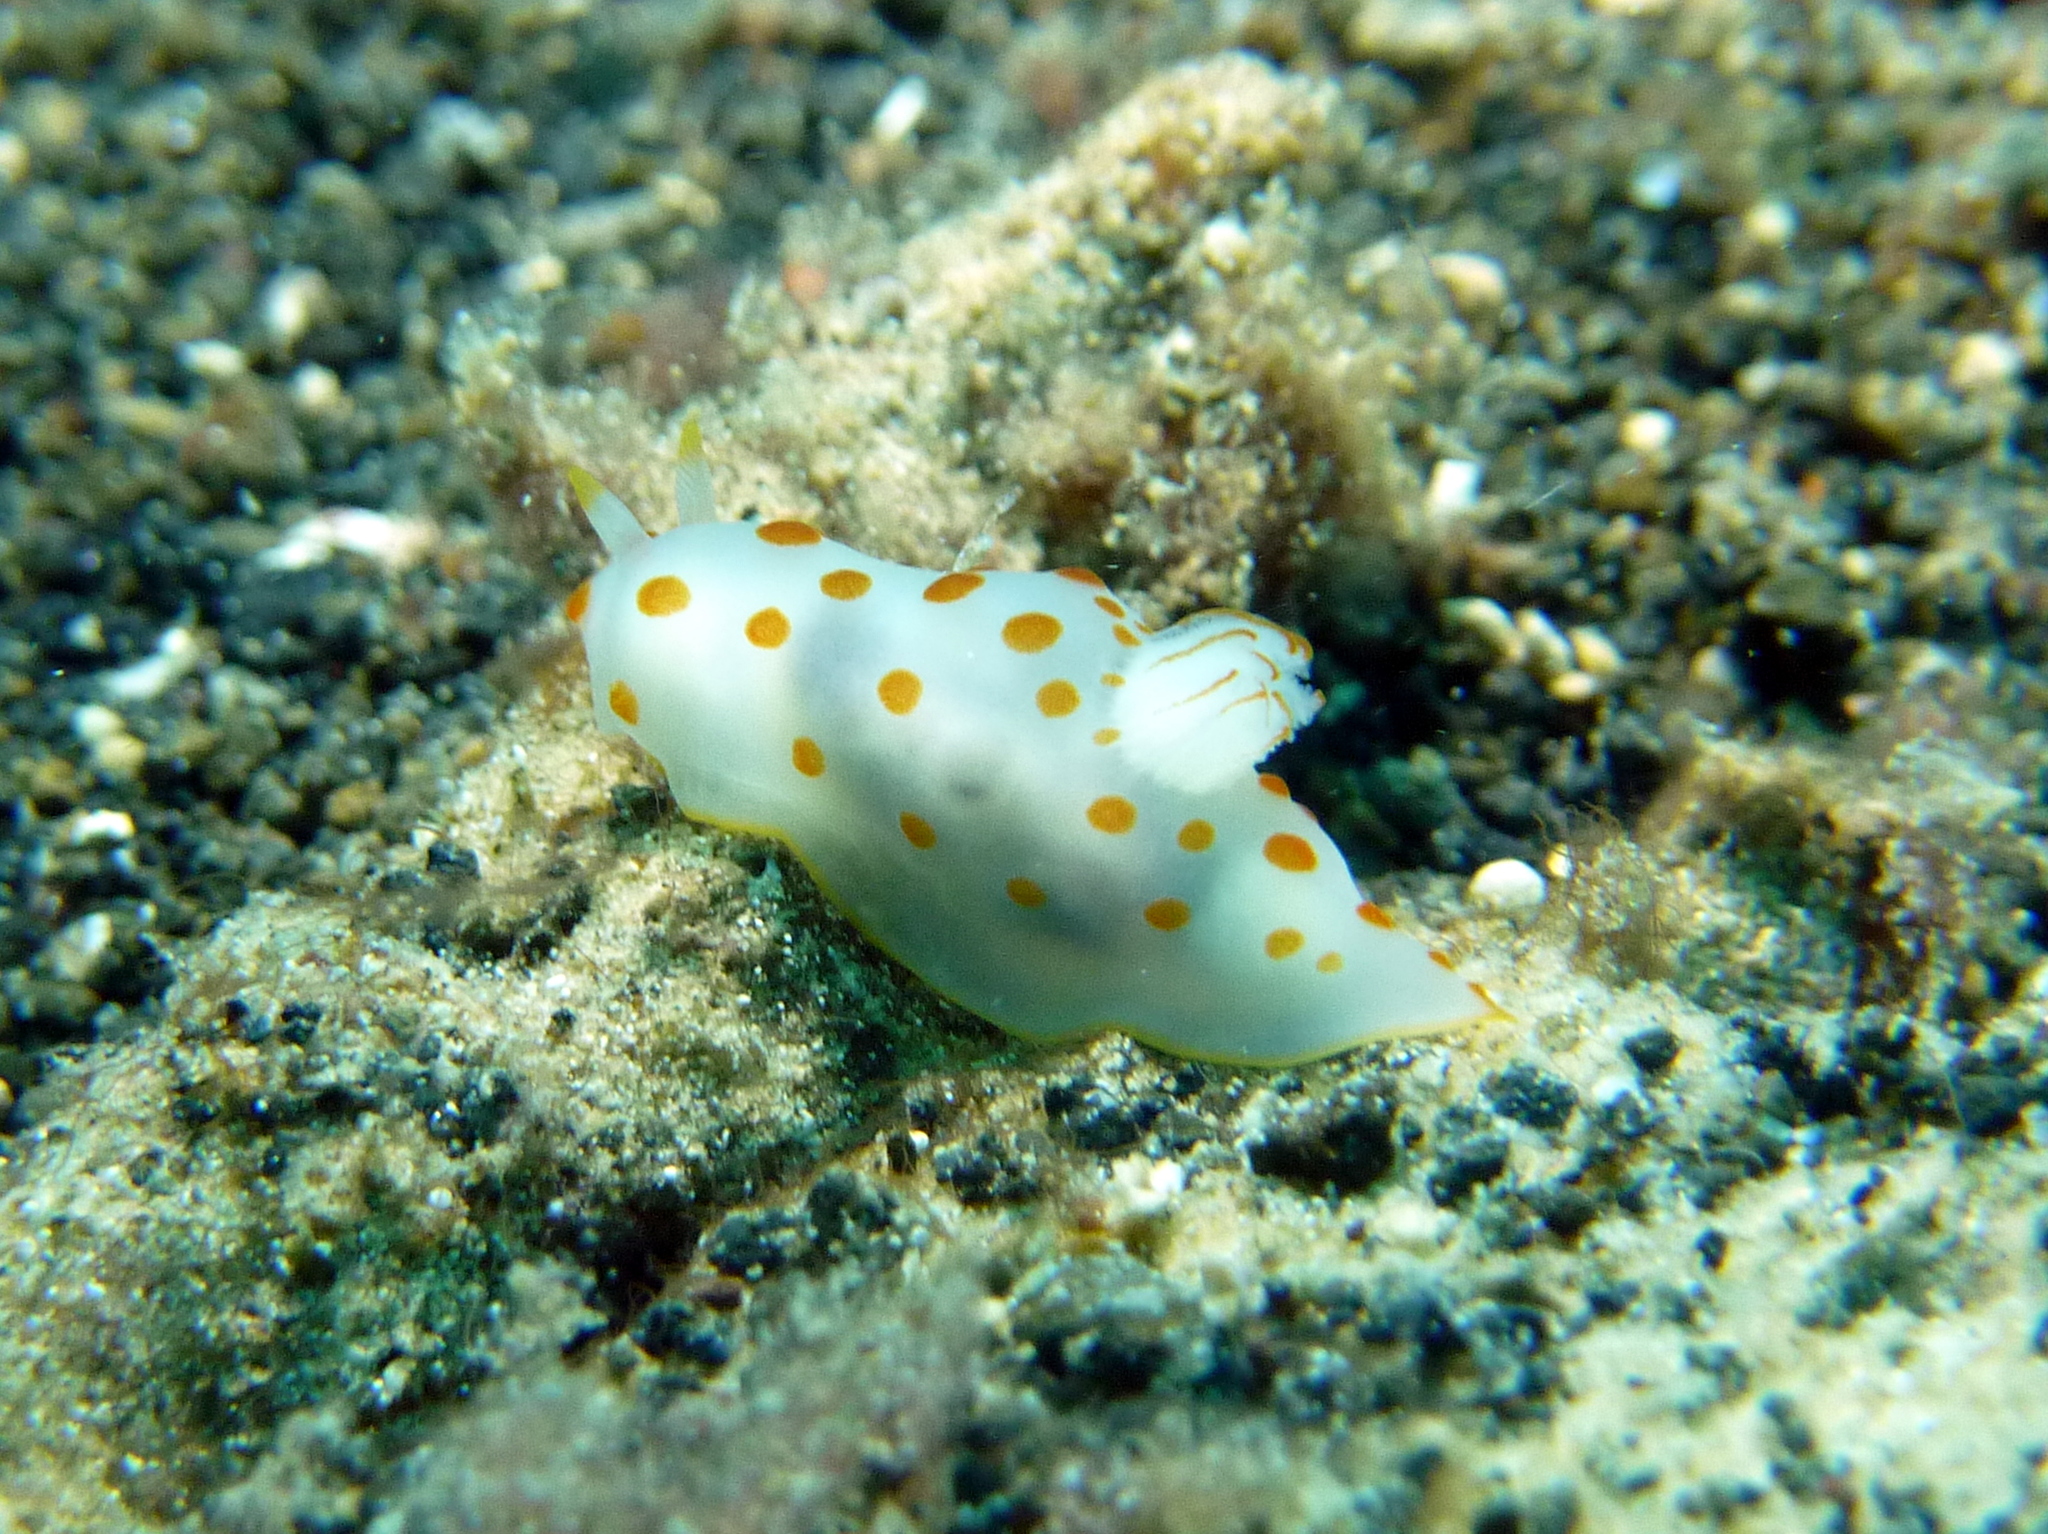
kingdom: Animalia
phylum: Mollusca
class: Gastropoda
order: Nudibranchia
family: Polyceridae
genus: Gymnodoris
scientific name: Gymnodoris ceylonica
